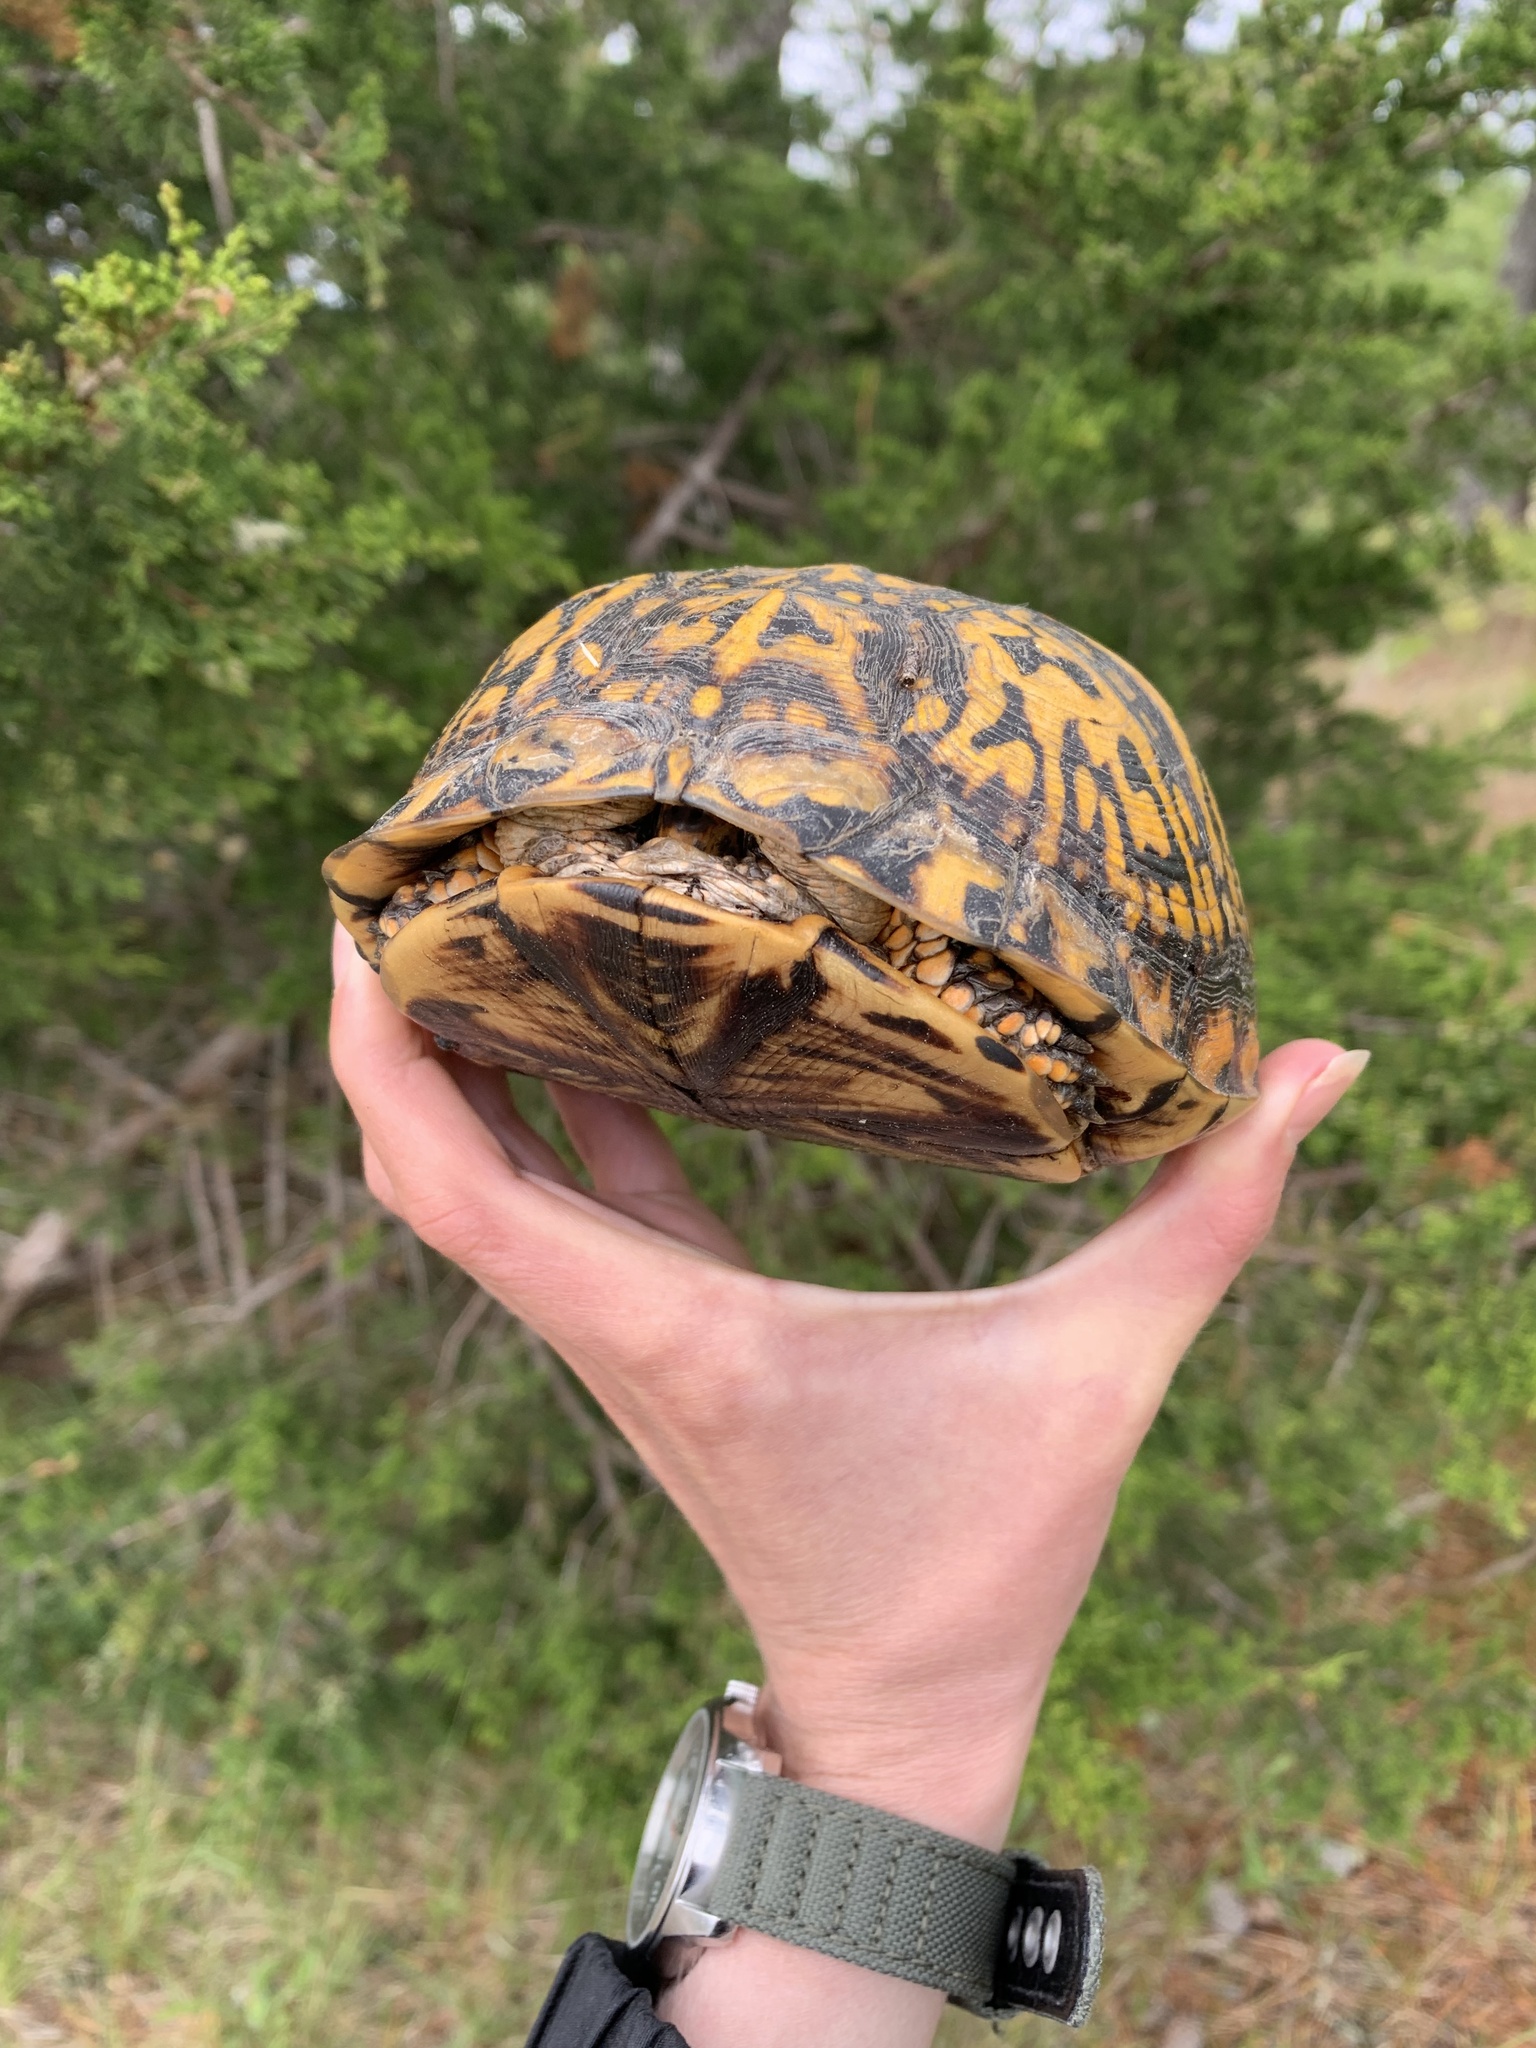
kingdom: Animalia
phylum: Chordata
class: Testudines
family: Emydidae
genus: Terrapene
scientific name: Terrapene carolina
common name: Common box turtle
